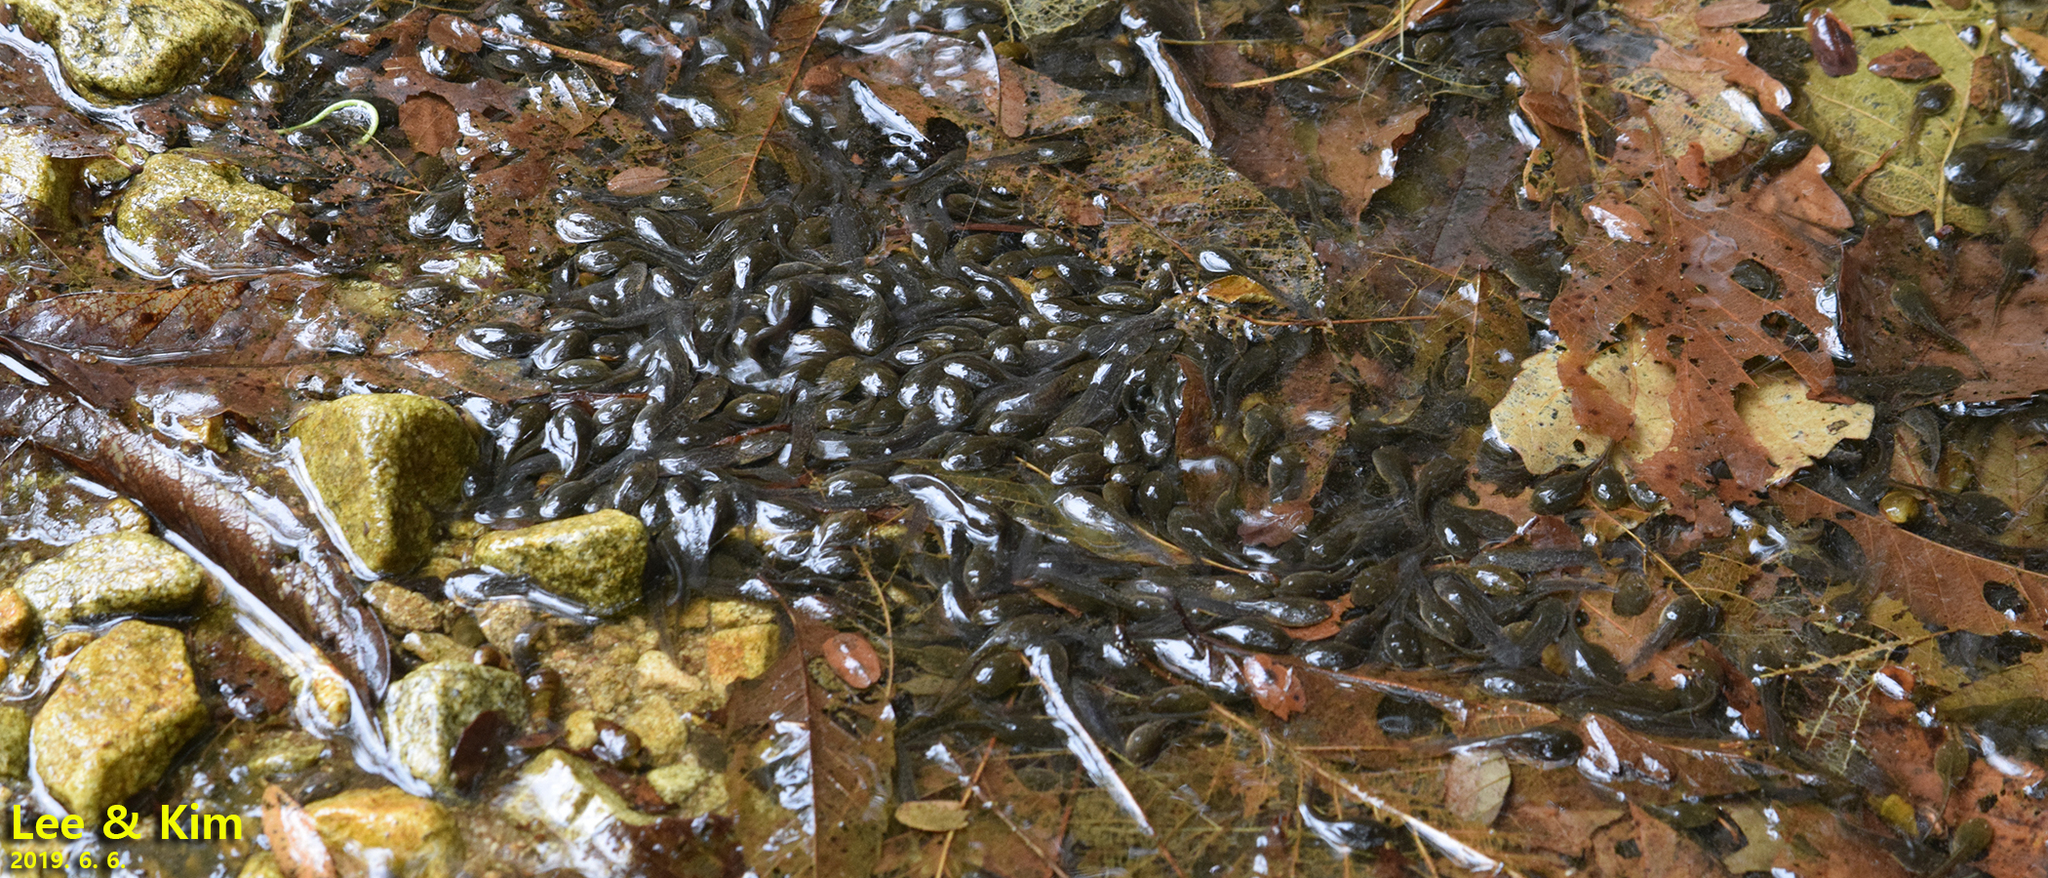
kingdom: Animalia
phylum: Chordata
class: Amphibia
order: Anura
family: Ranidae
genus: Rana
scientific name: Rana huanrenensis
